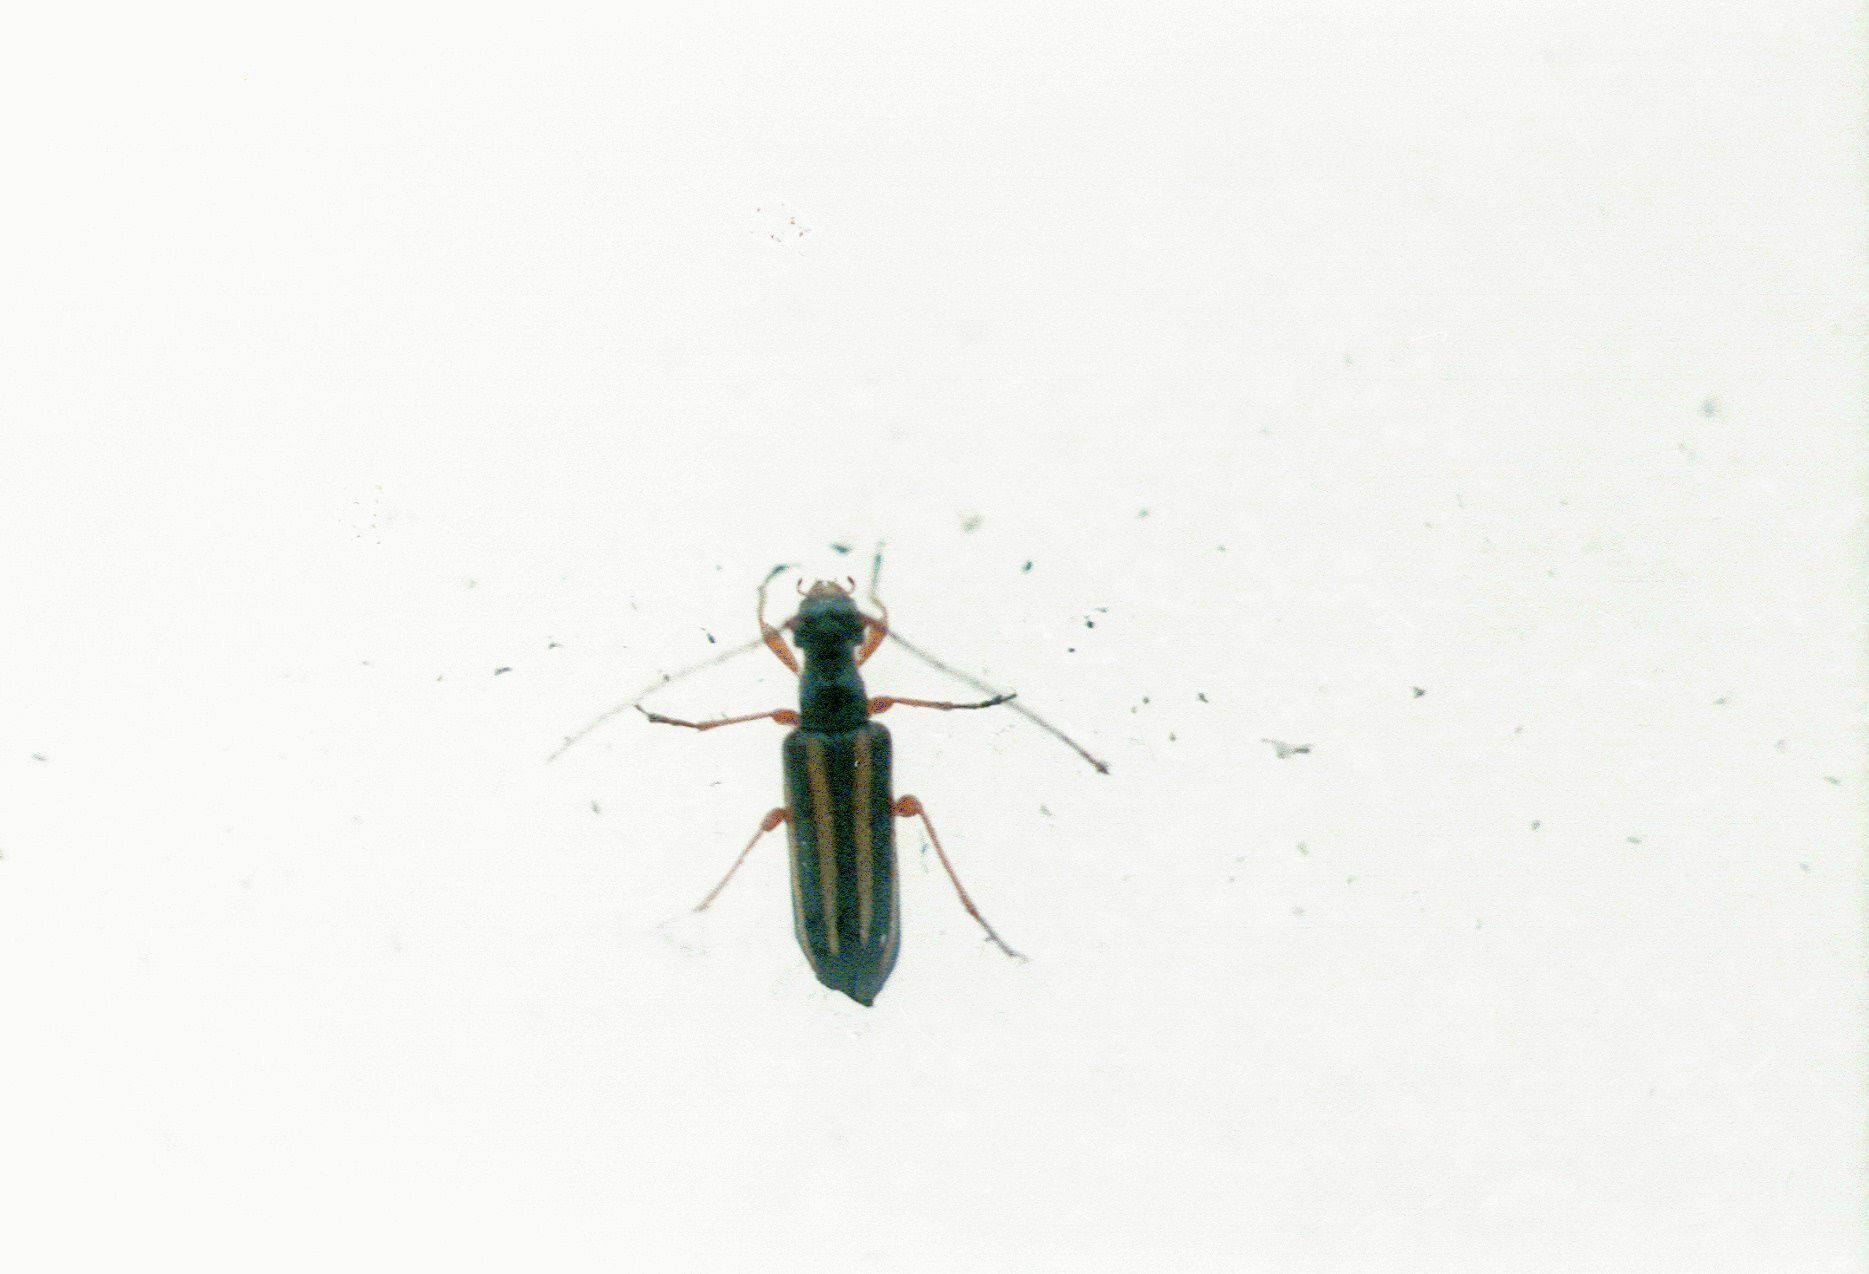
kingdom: Animalia
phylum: Arthropoda
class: Insecta
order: Coleoptera
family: Cerambycidae
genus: Cornumutila
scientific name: Cornumutila lineata
